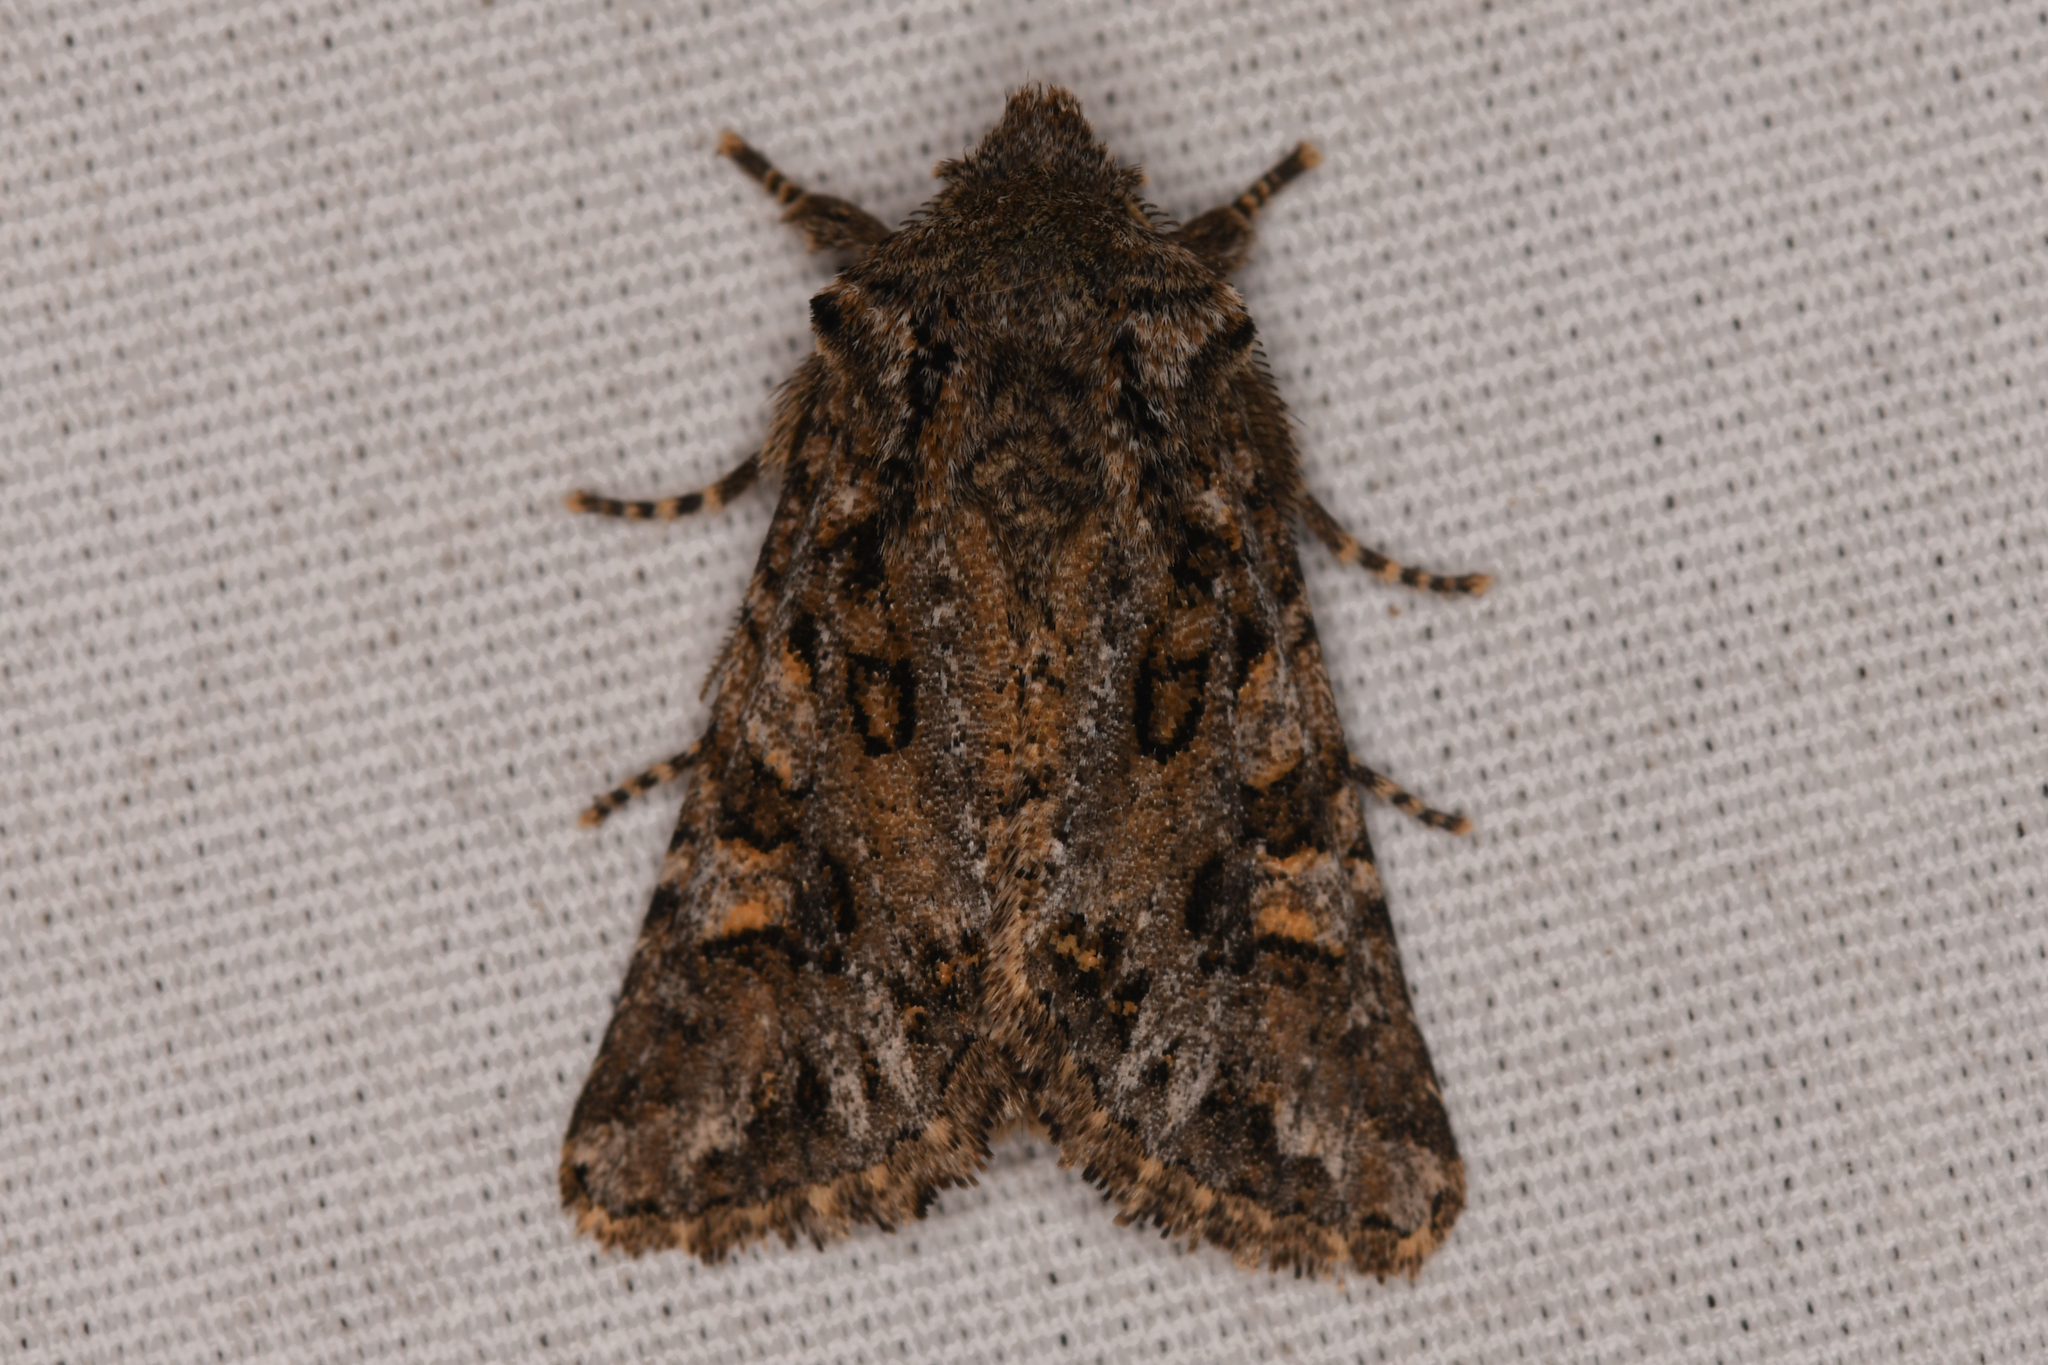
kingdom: Animalia
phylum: Arthropoda
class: Insecta
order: Lepidoptera
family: Noctuidae
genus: Miodera
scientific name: Miodera stigmata
